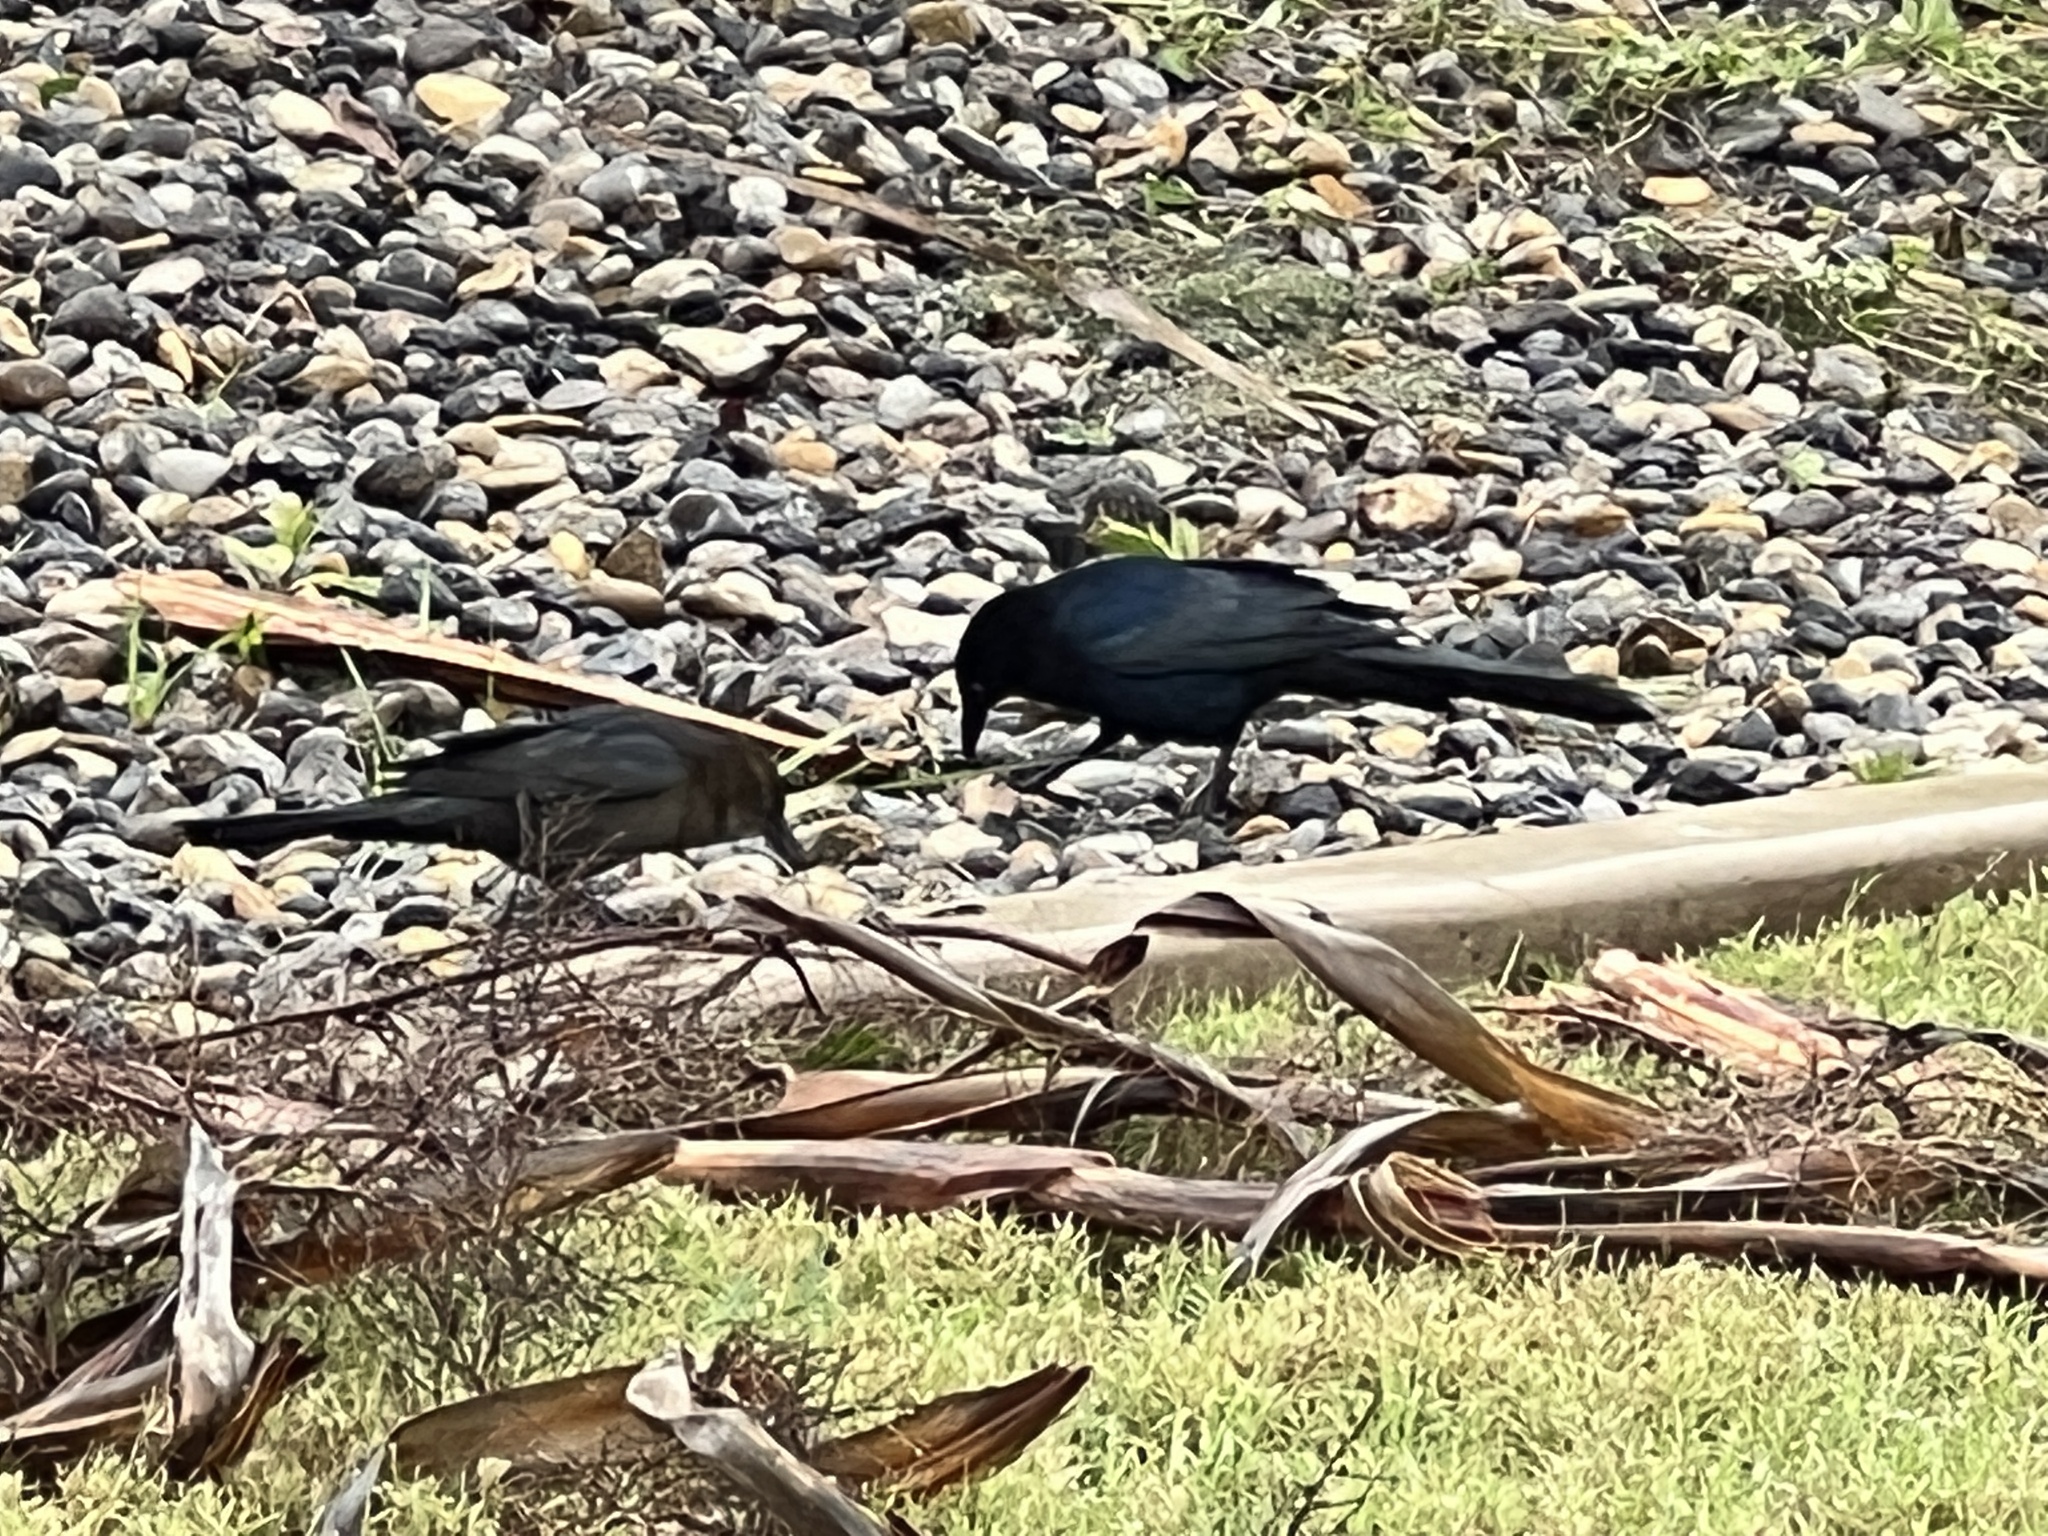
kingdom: Animalia
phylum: Chordata
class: Aves
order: Passeriformes
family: Icteridae
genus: Quiscalus
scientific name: Quiscalus mexicanus
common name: Great-tailed grackle
